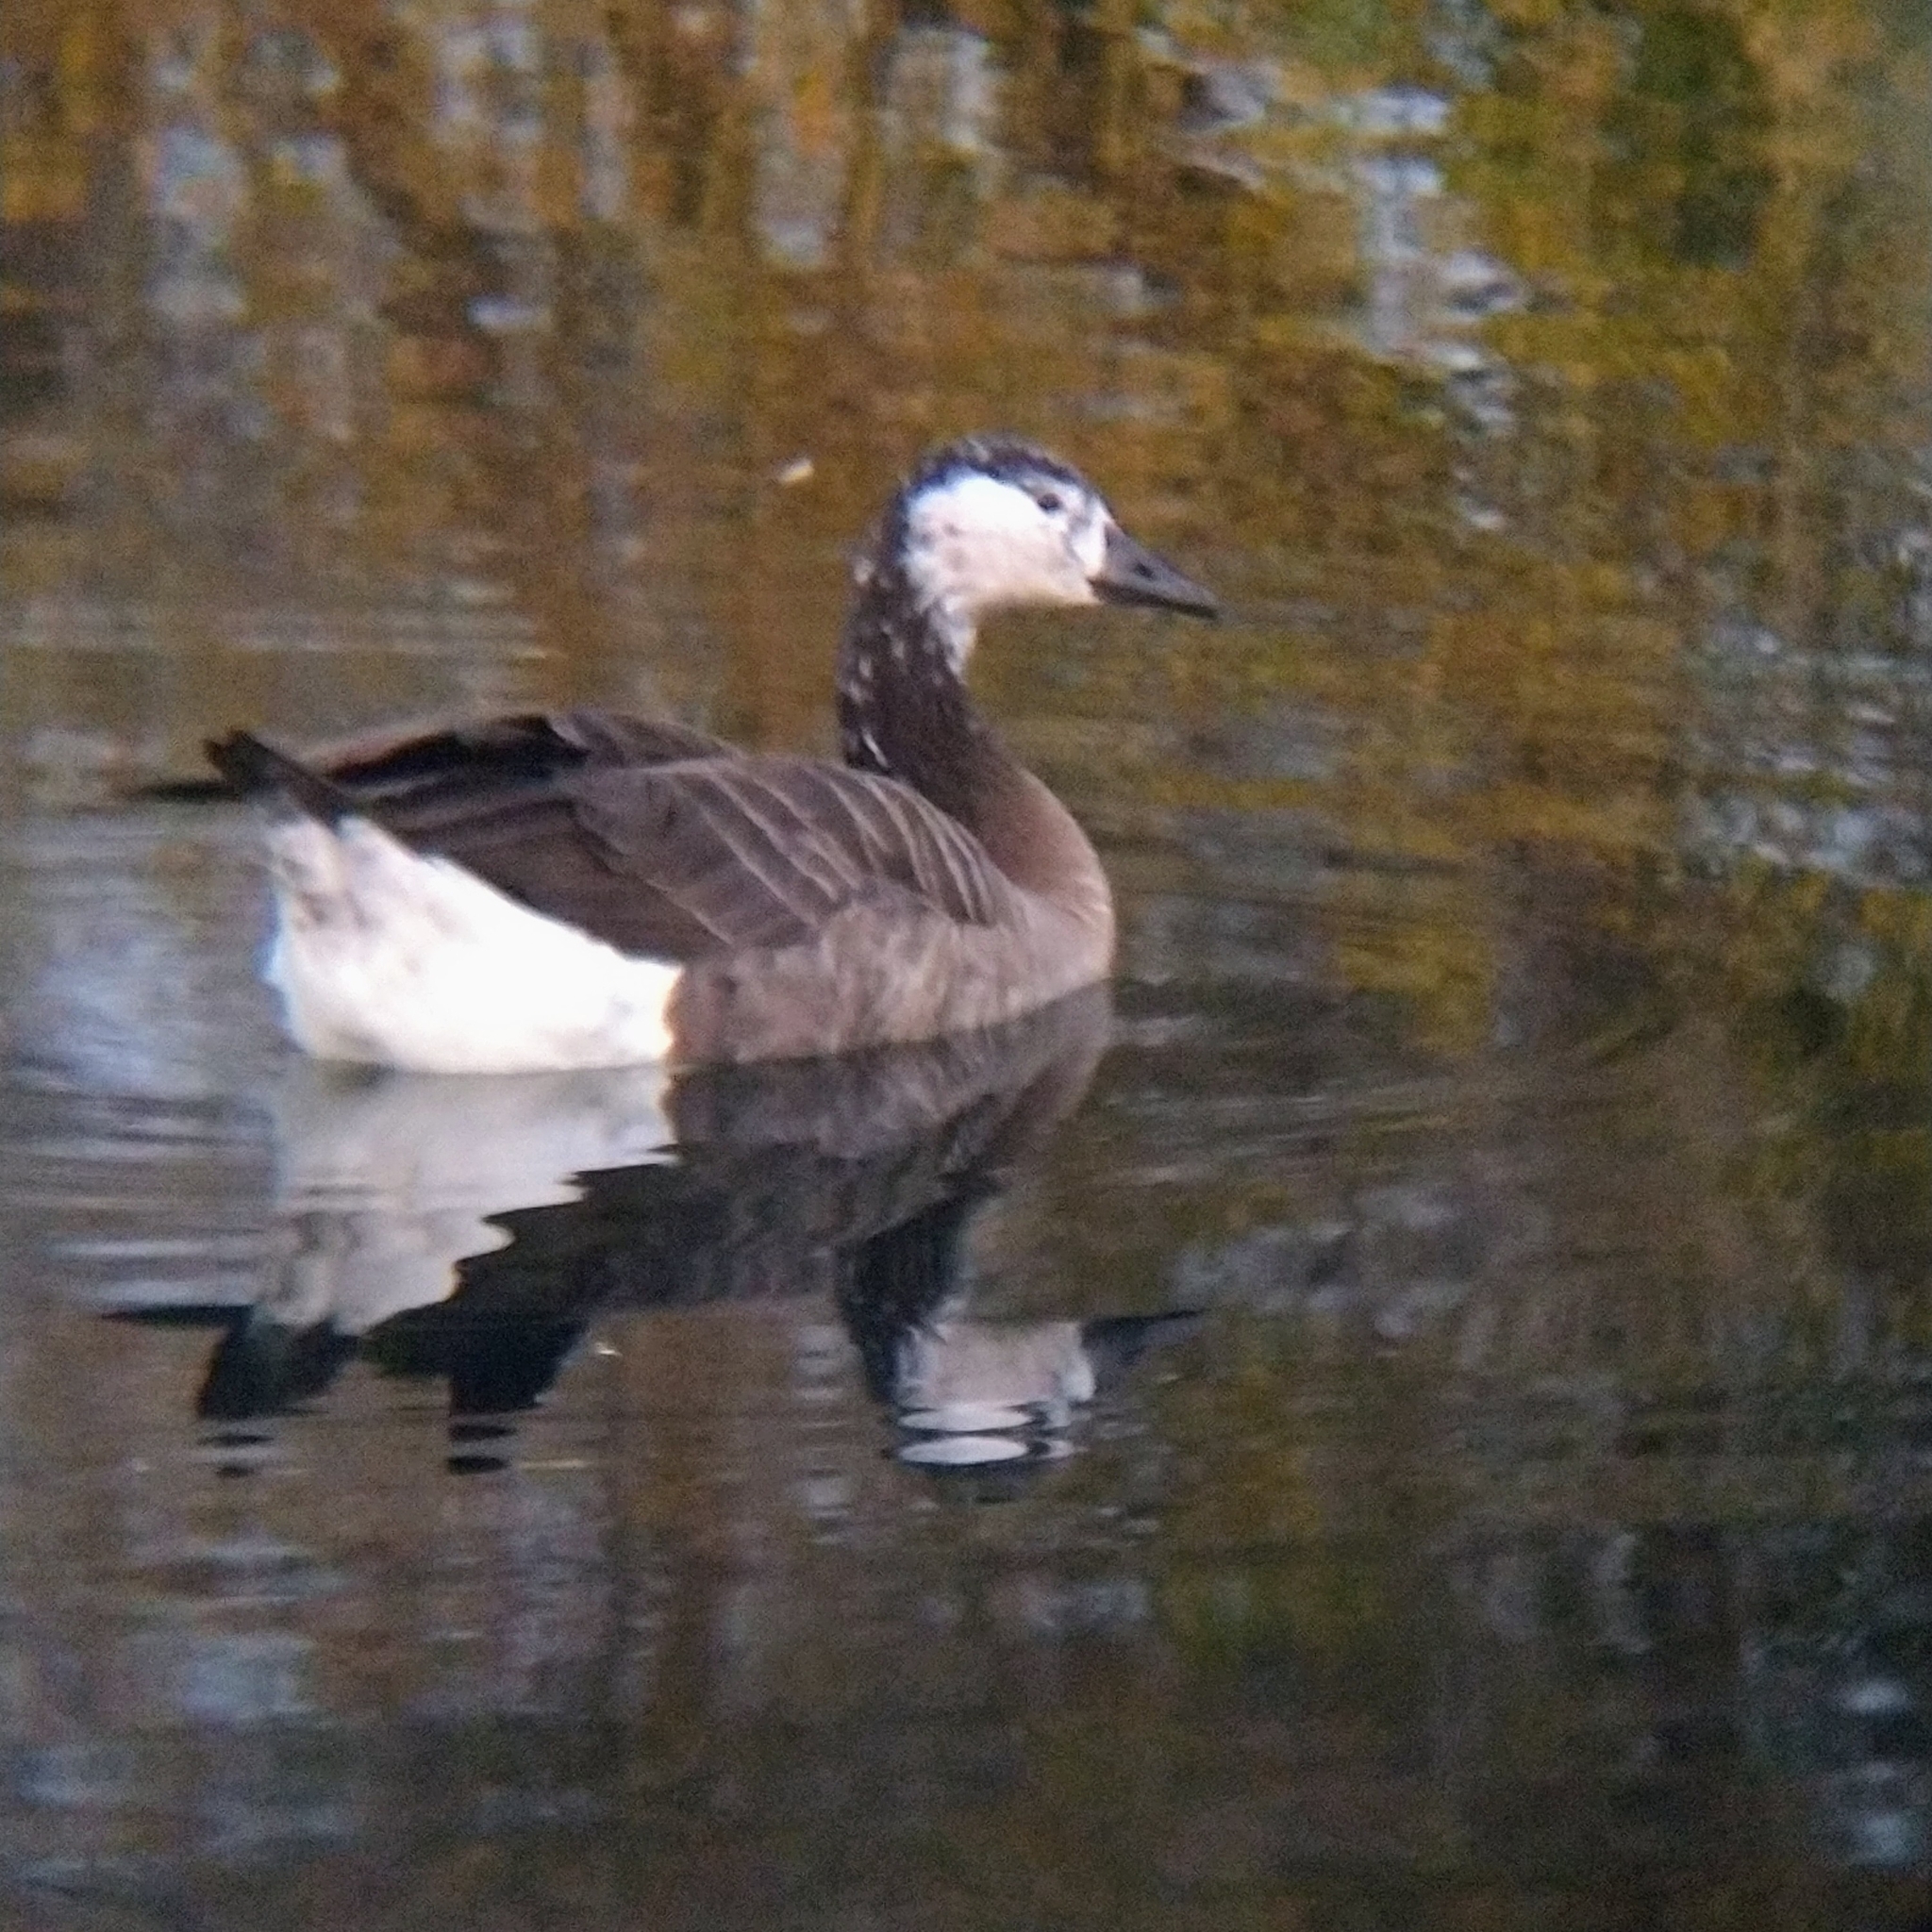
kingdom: Animalia
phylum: Chordata
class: Aves
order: Anseriformes
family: Anatidae
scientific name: Anatidae
